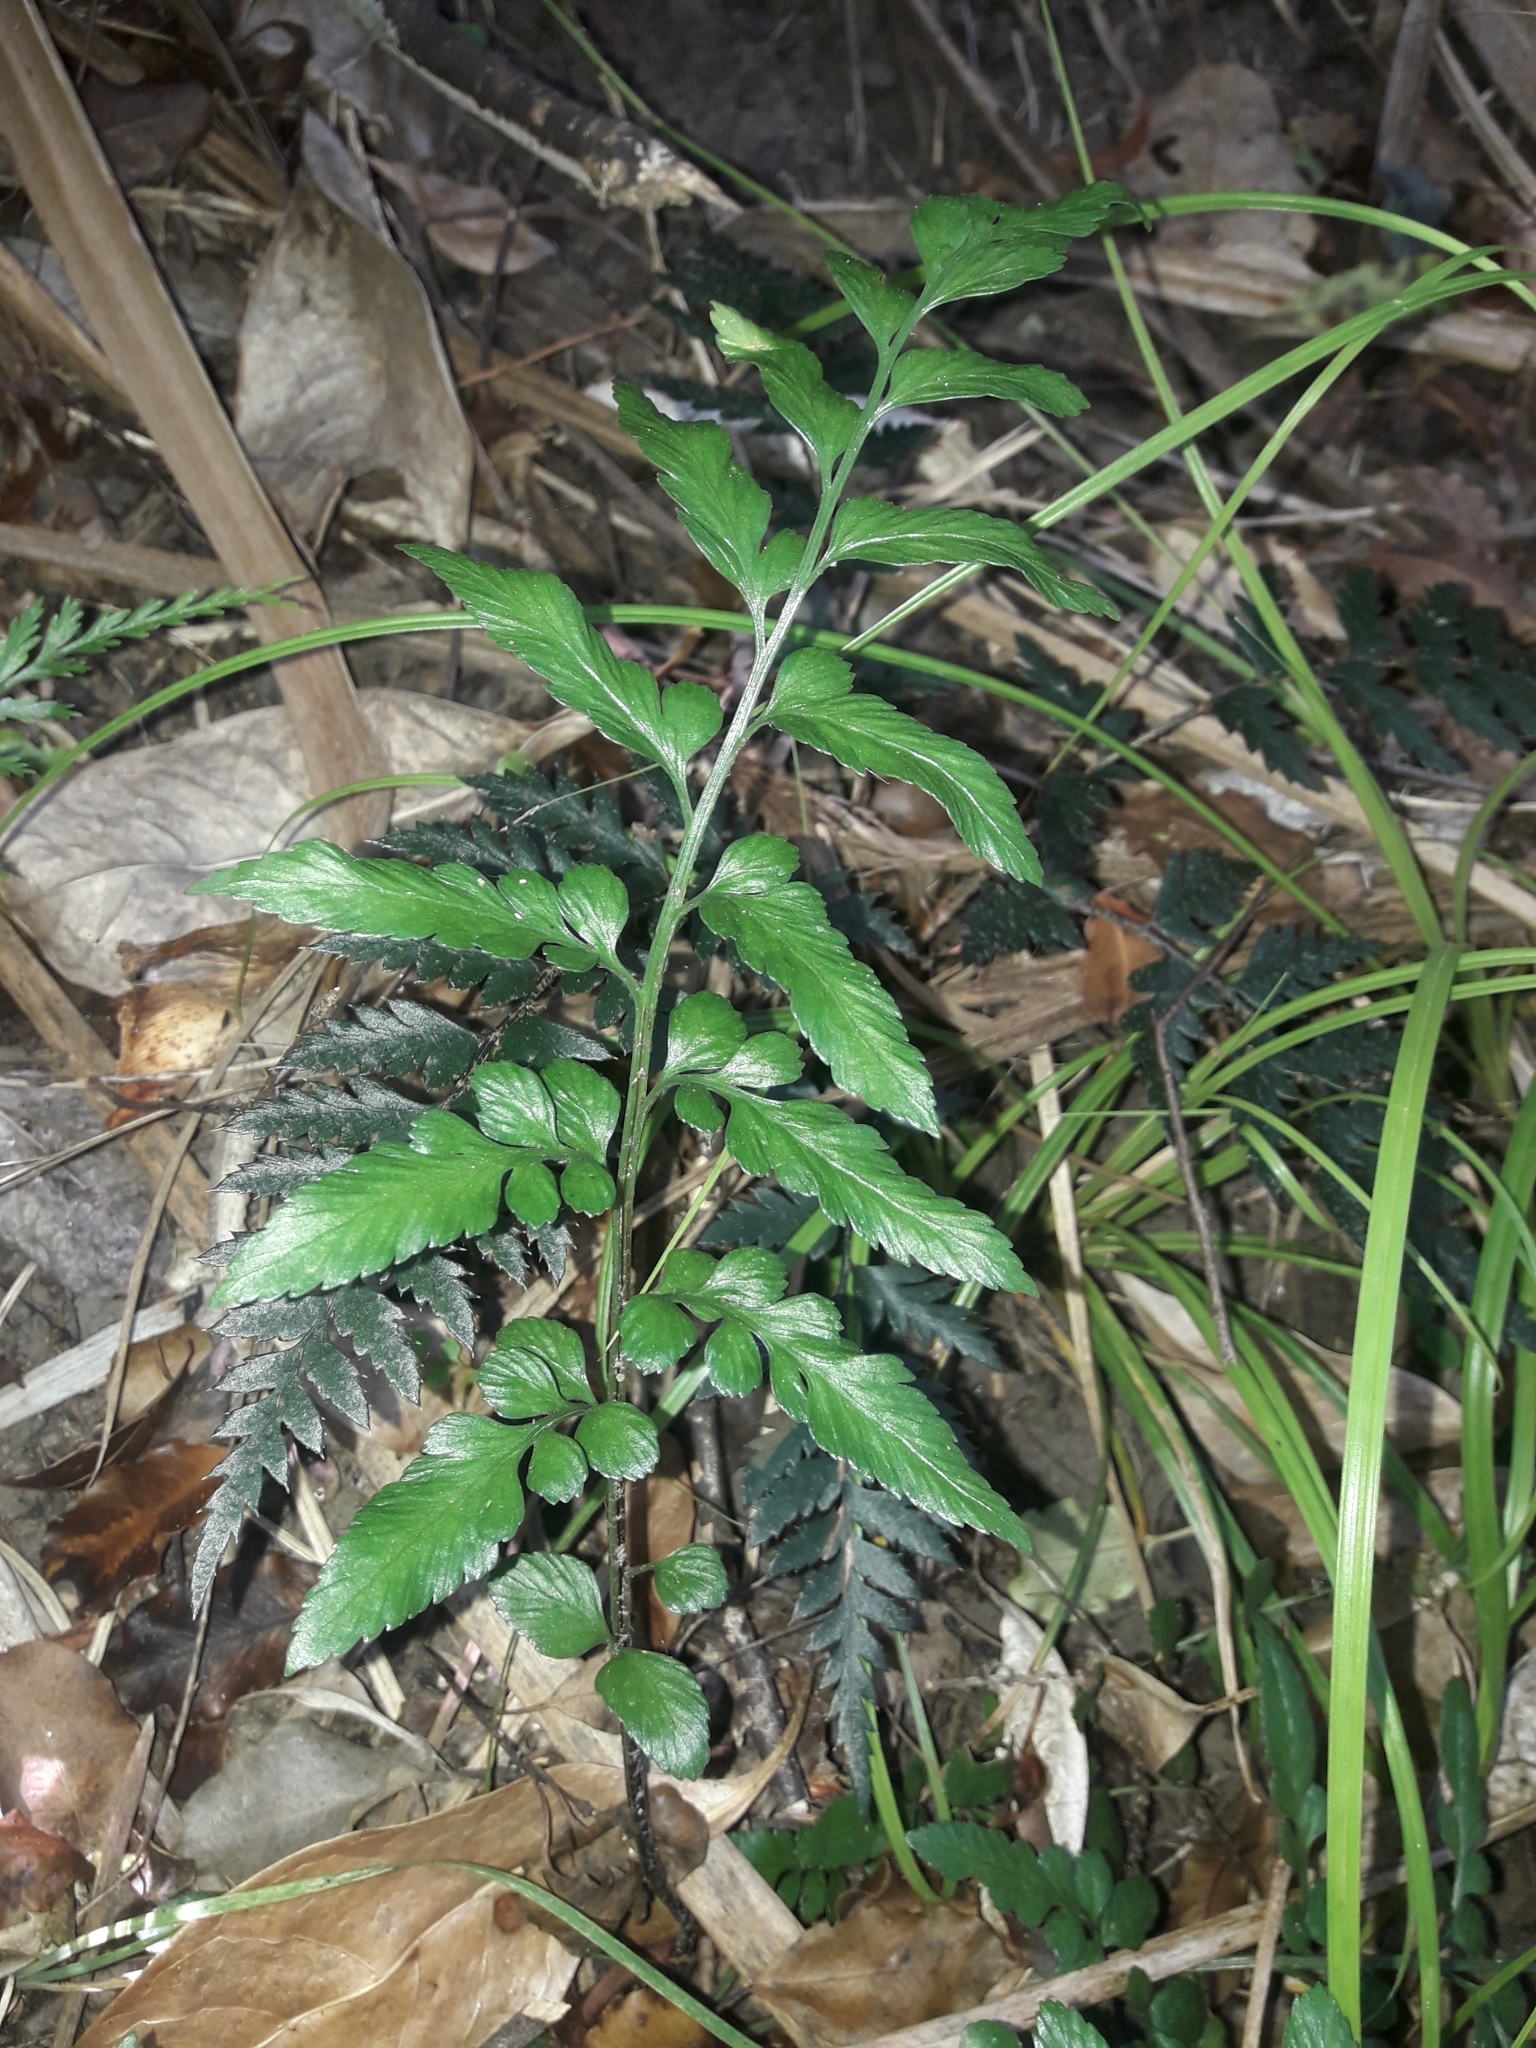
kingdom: Plantae
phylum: Tracheophyta
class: Polypodiopsida
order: Polypodiales
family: Aspleniaceae
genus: Asplenium
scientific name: Asplenium lyallii
